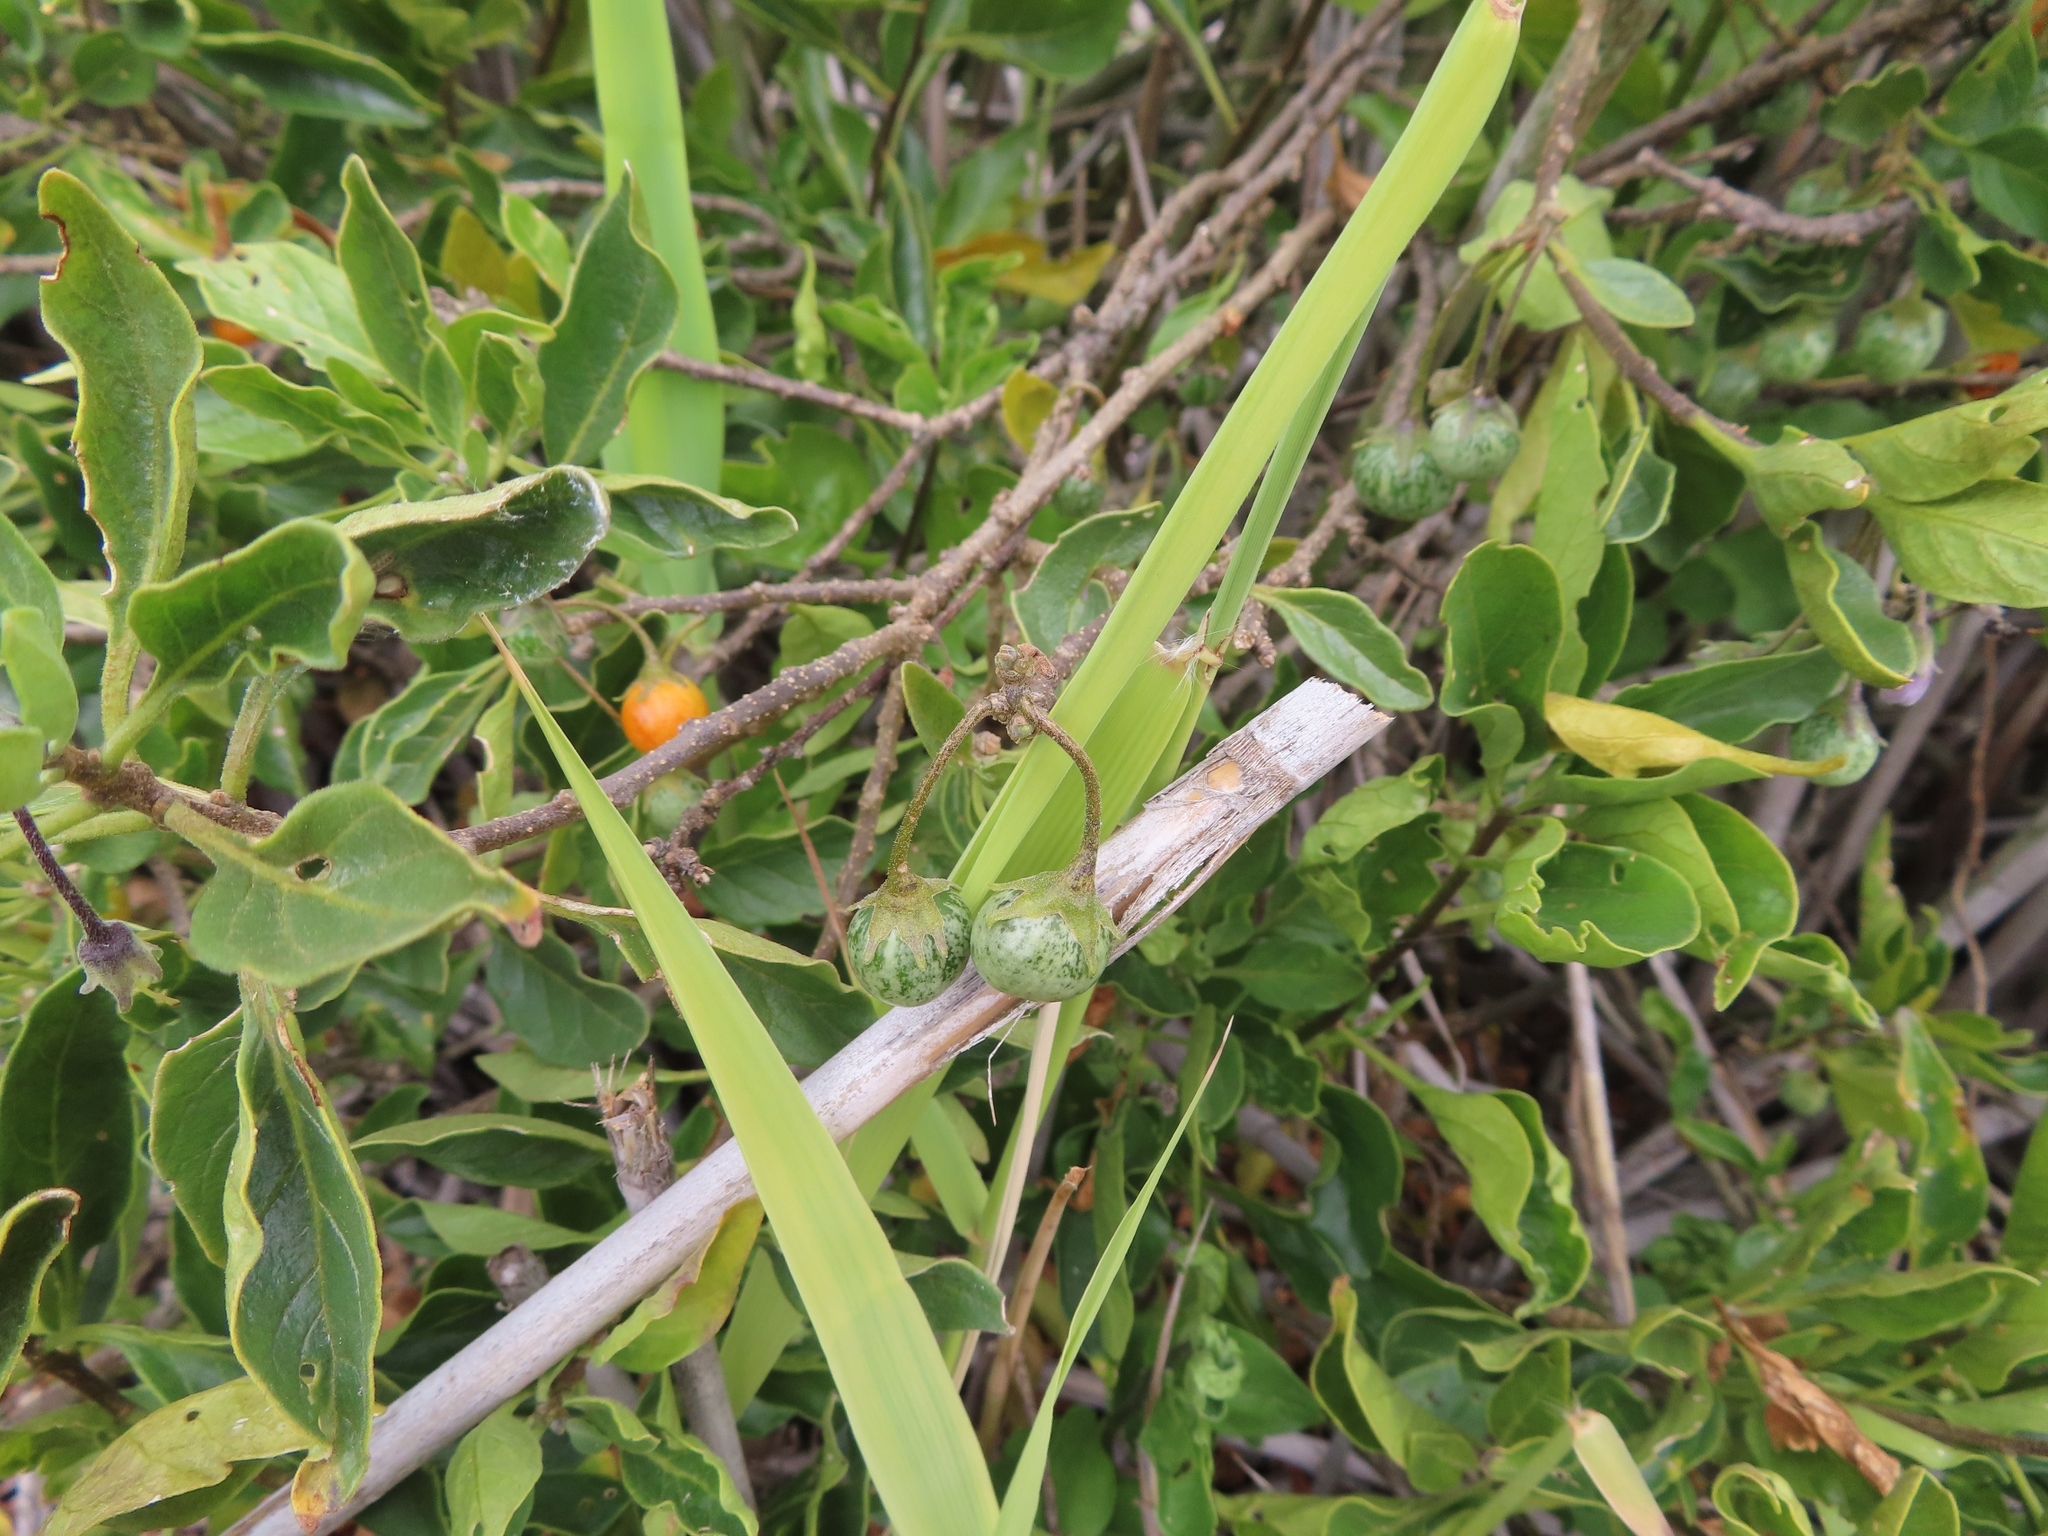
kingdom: Plantae
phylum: Tracheophyta
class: Magnoliopsida
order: Solanales
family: Solanaceae
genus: Solanum
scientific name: Solanum guineense
